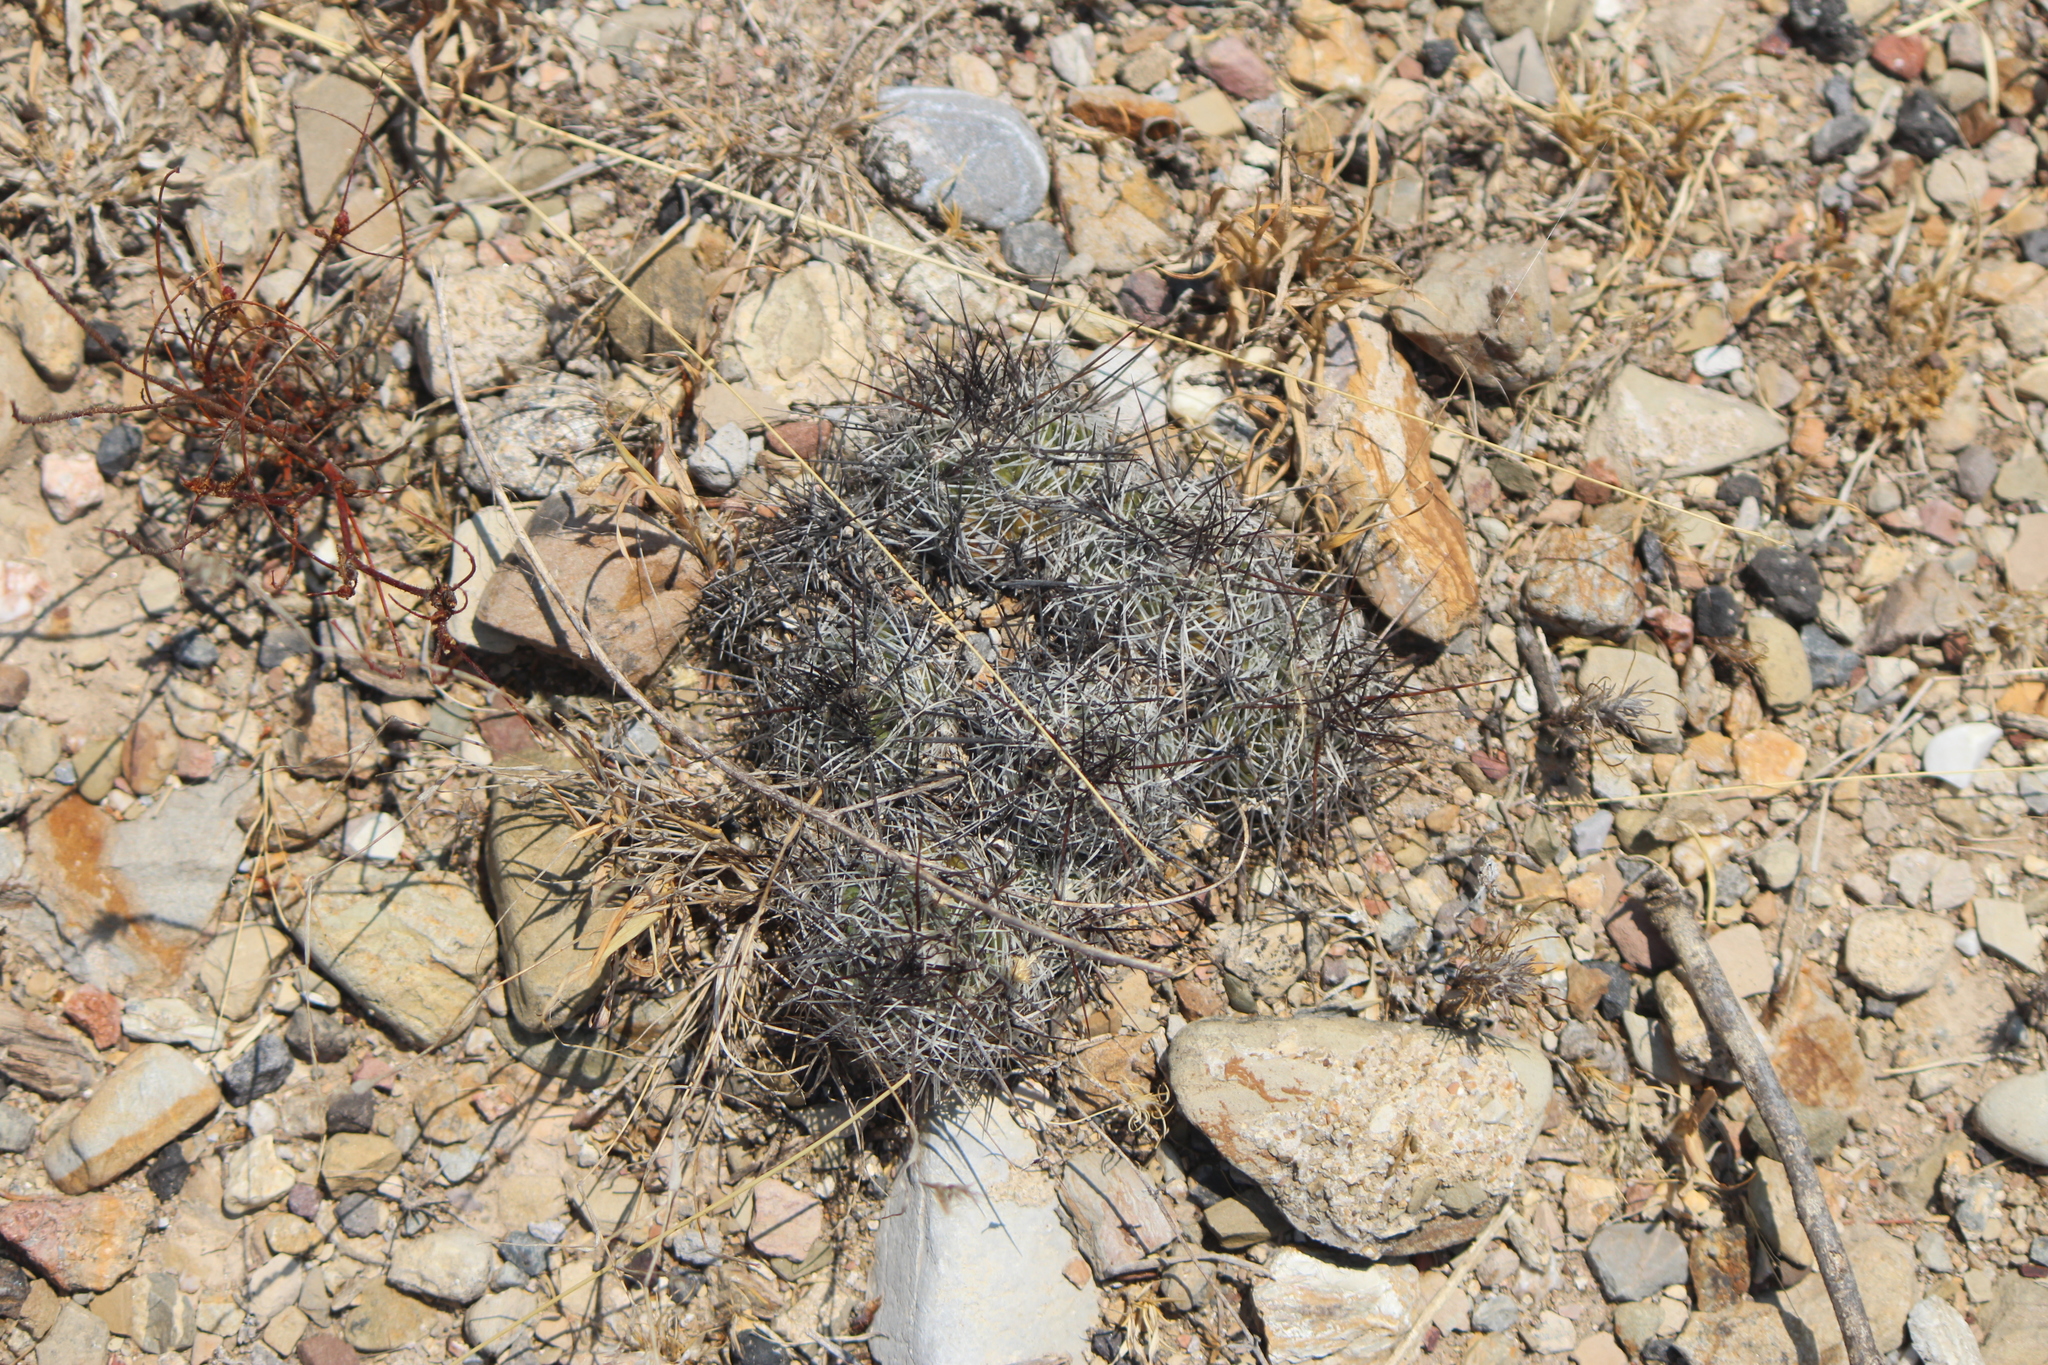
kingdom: Plantae
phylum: Tracheophyta
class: Magnoliopsida
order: Caryophyllales
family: Cactaceae
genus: Cochemiea
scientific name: Cochemiea conoidea
